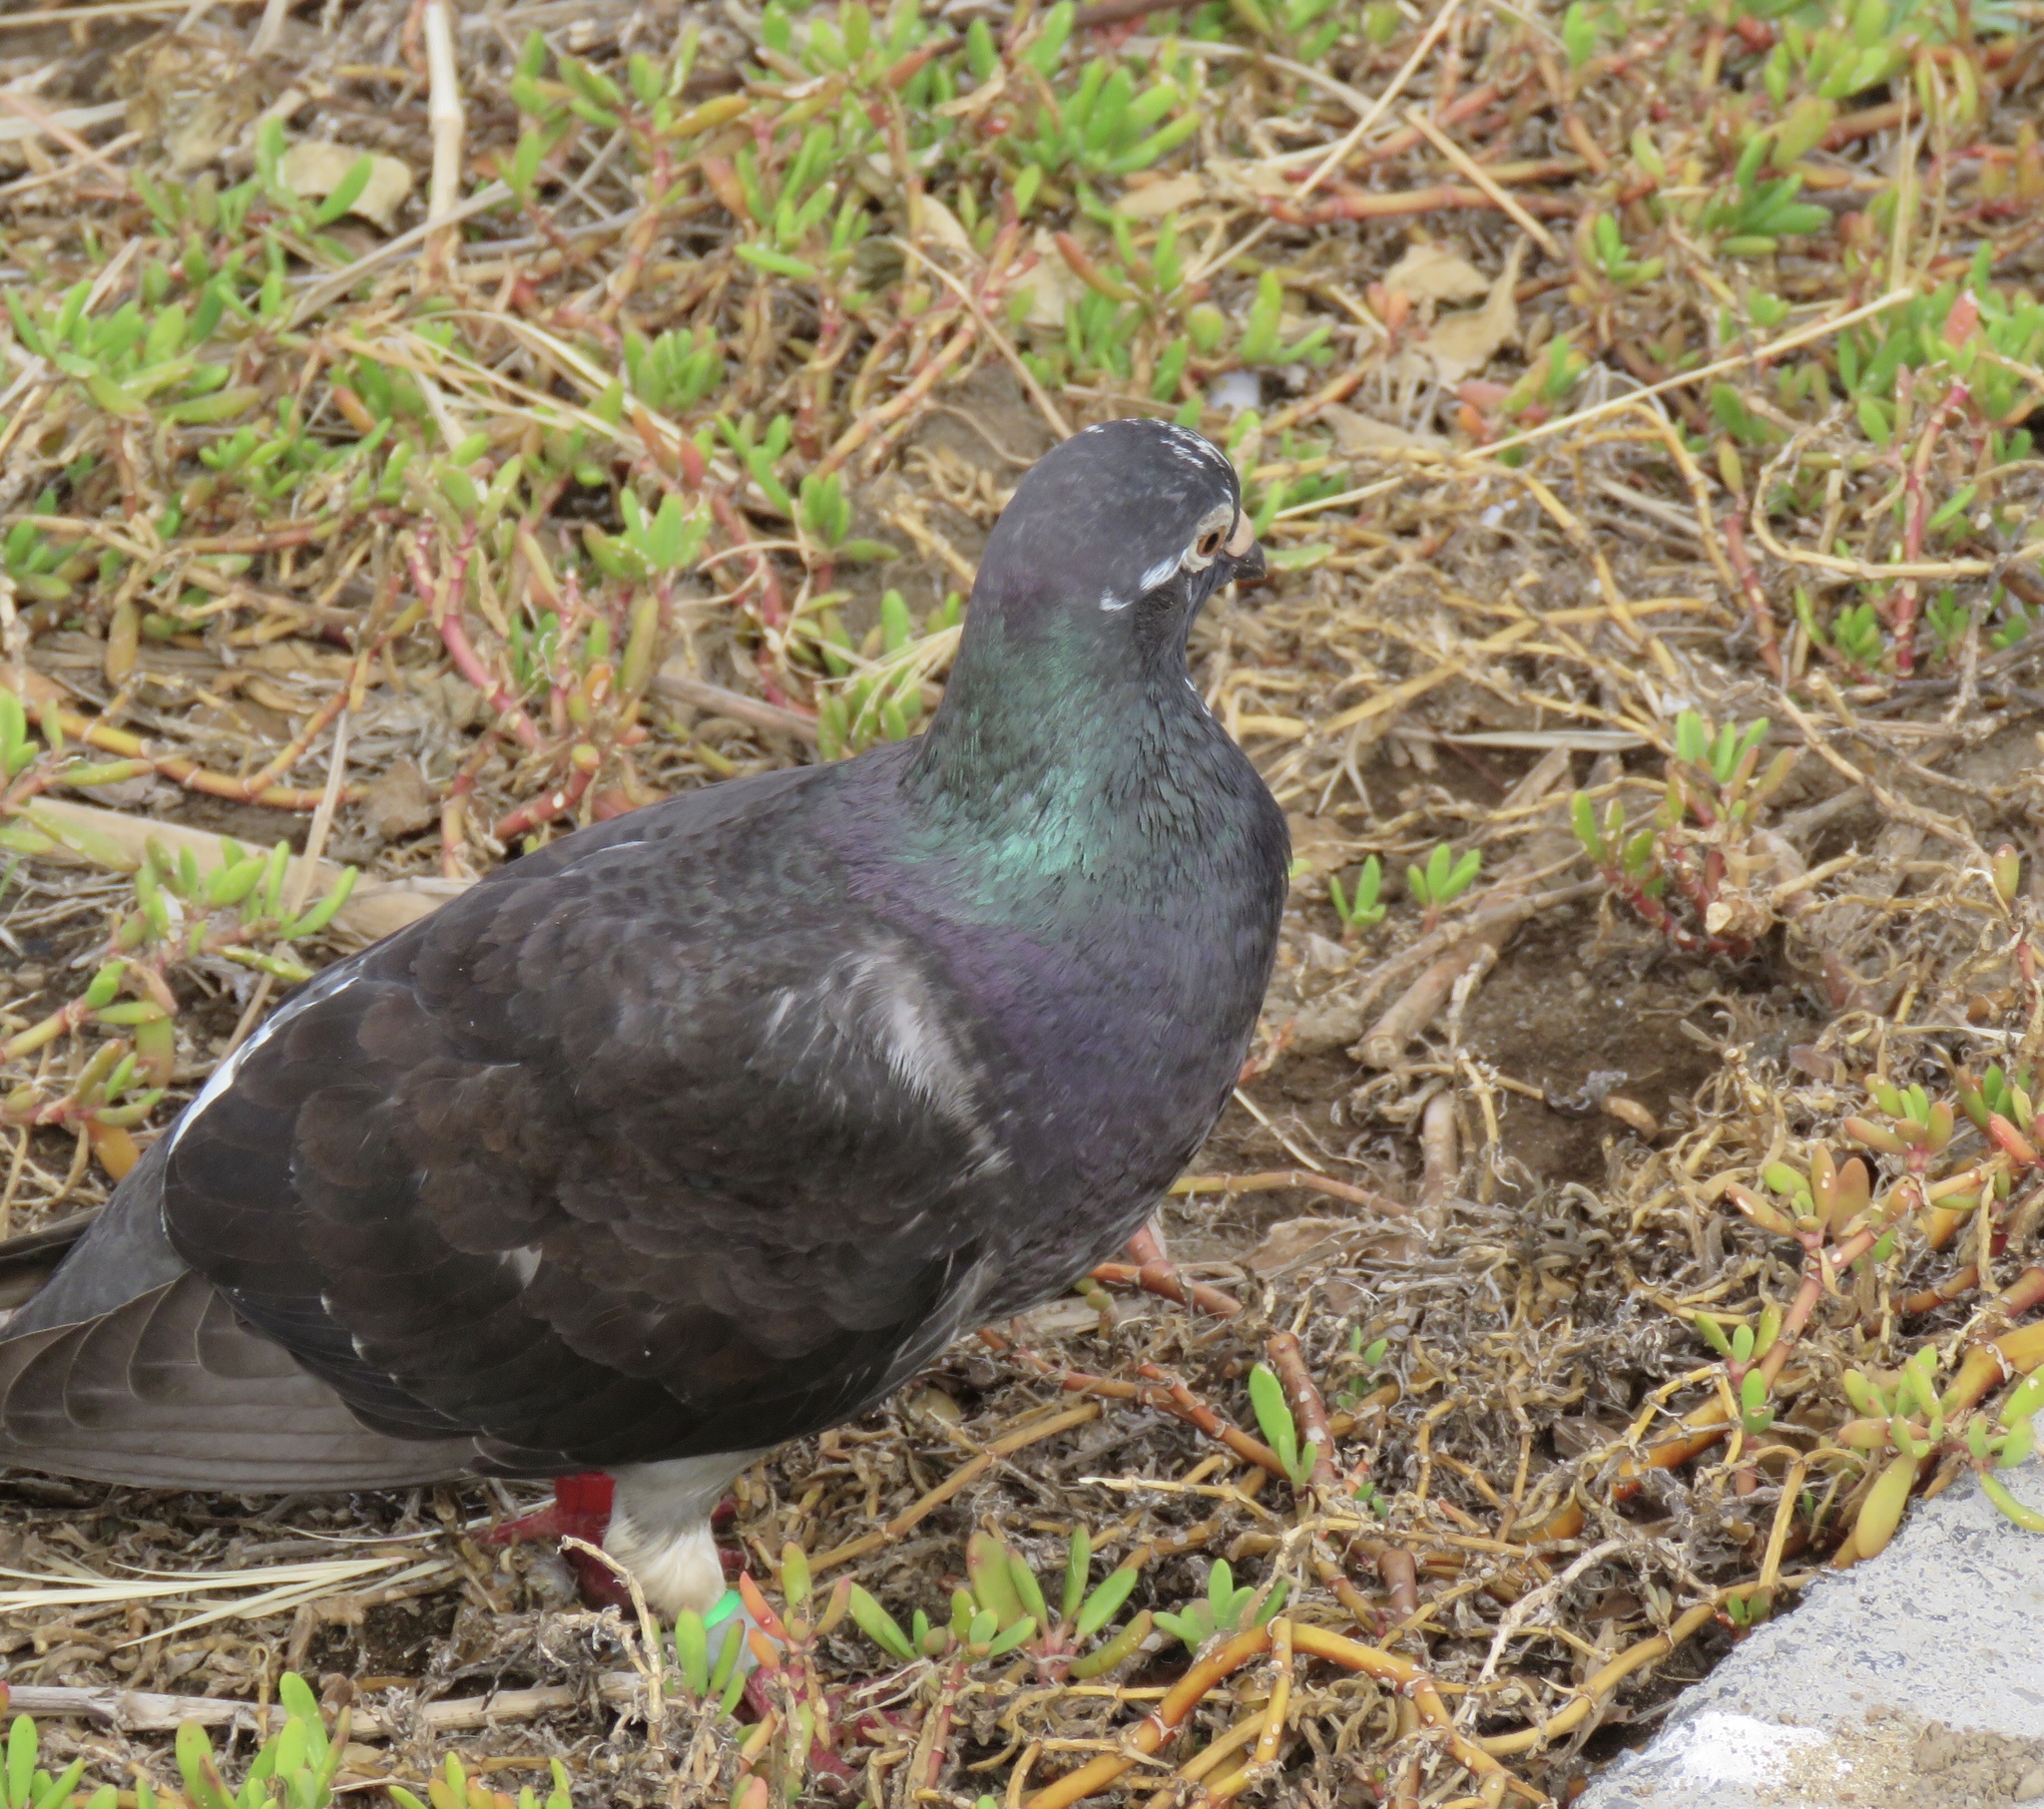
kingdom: Animalia
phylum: Chordata
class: Aves
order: Columbiformes
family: Columbidae
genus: Columba
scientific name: Columba livia
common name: Rock pigeon
